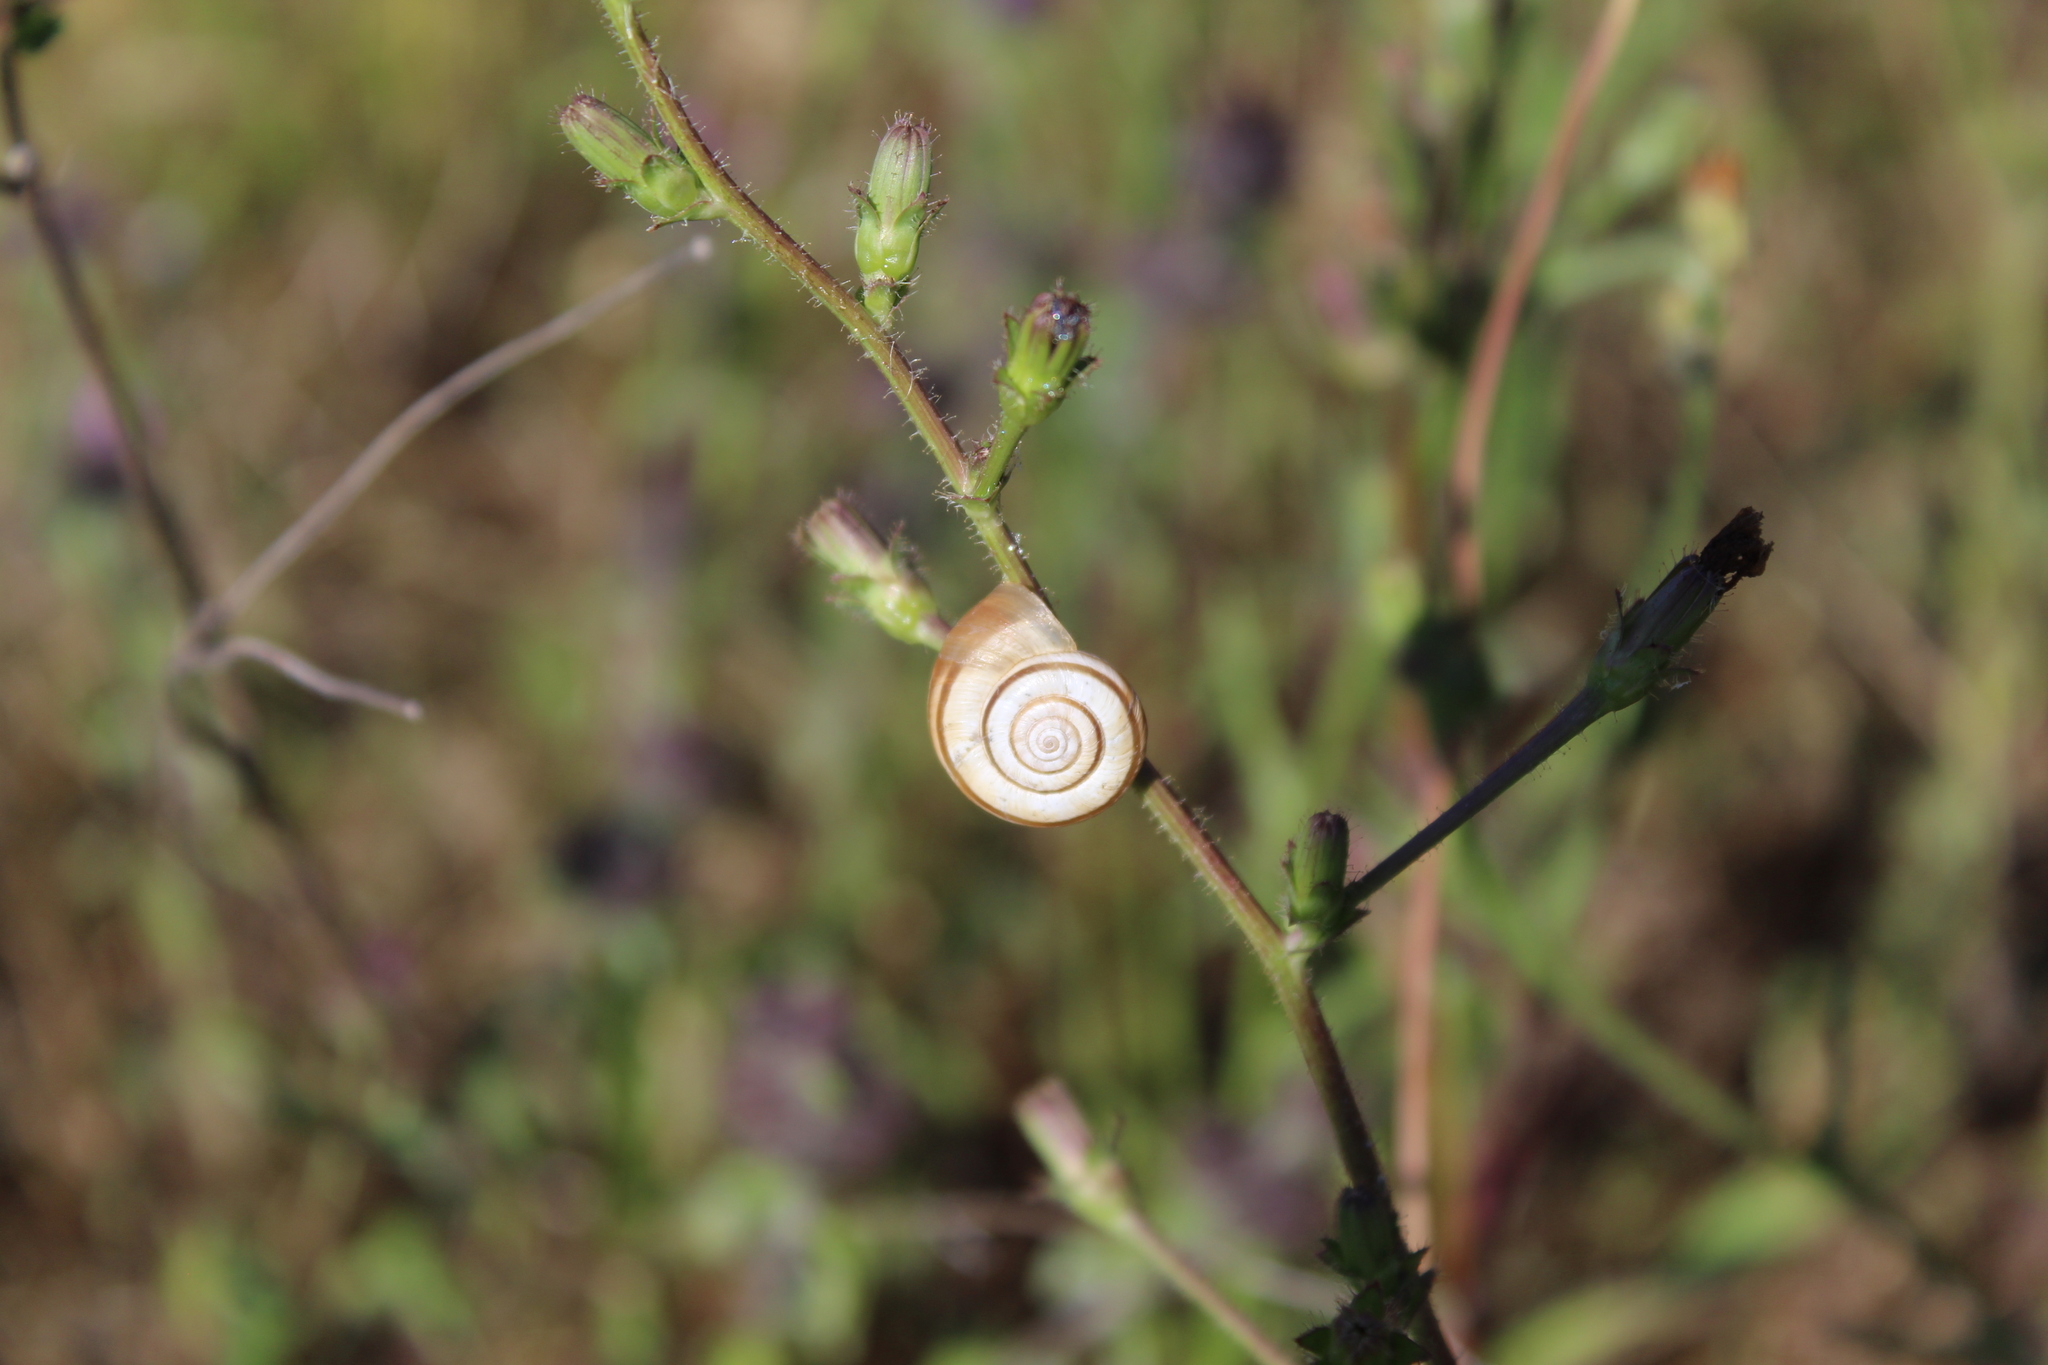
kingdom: Animalia
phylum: Mollusca
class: Gastropoda
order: Stylommatophora
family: Geomitridae
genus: Helicella
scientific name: Helicella itala
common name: Heath snail
